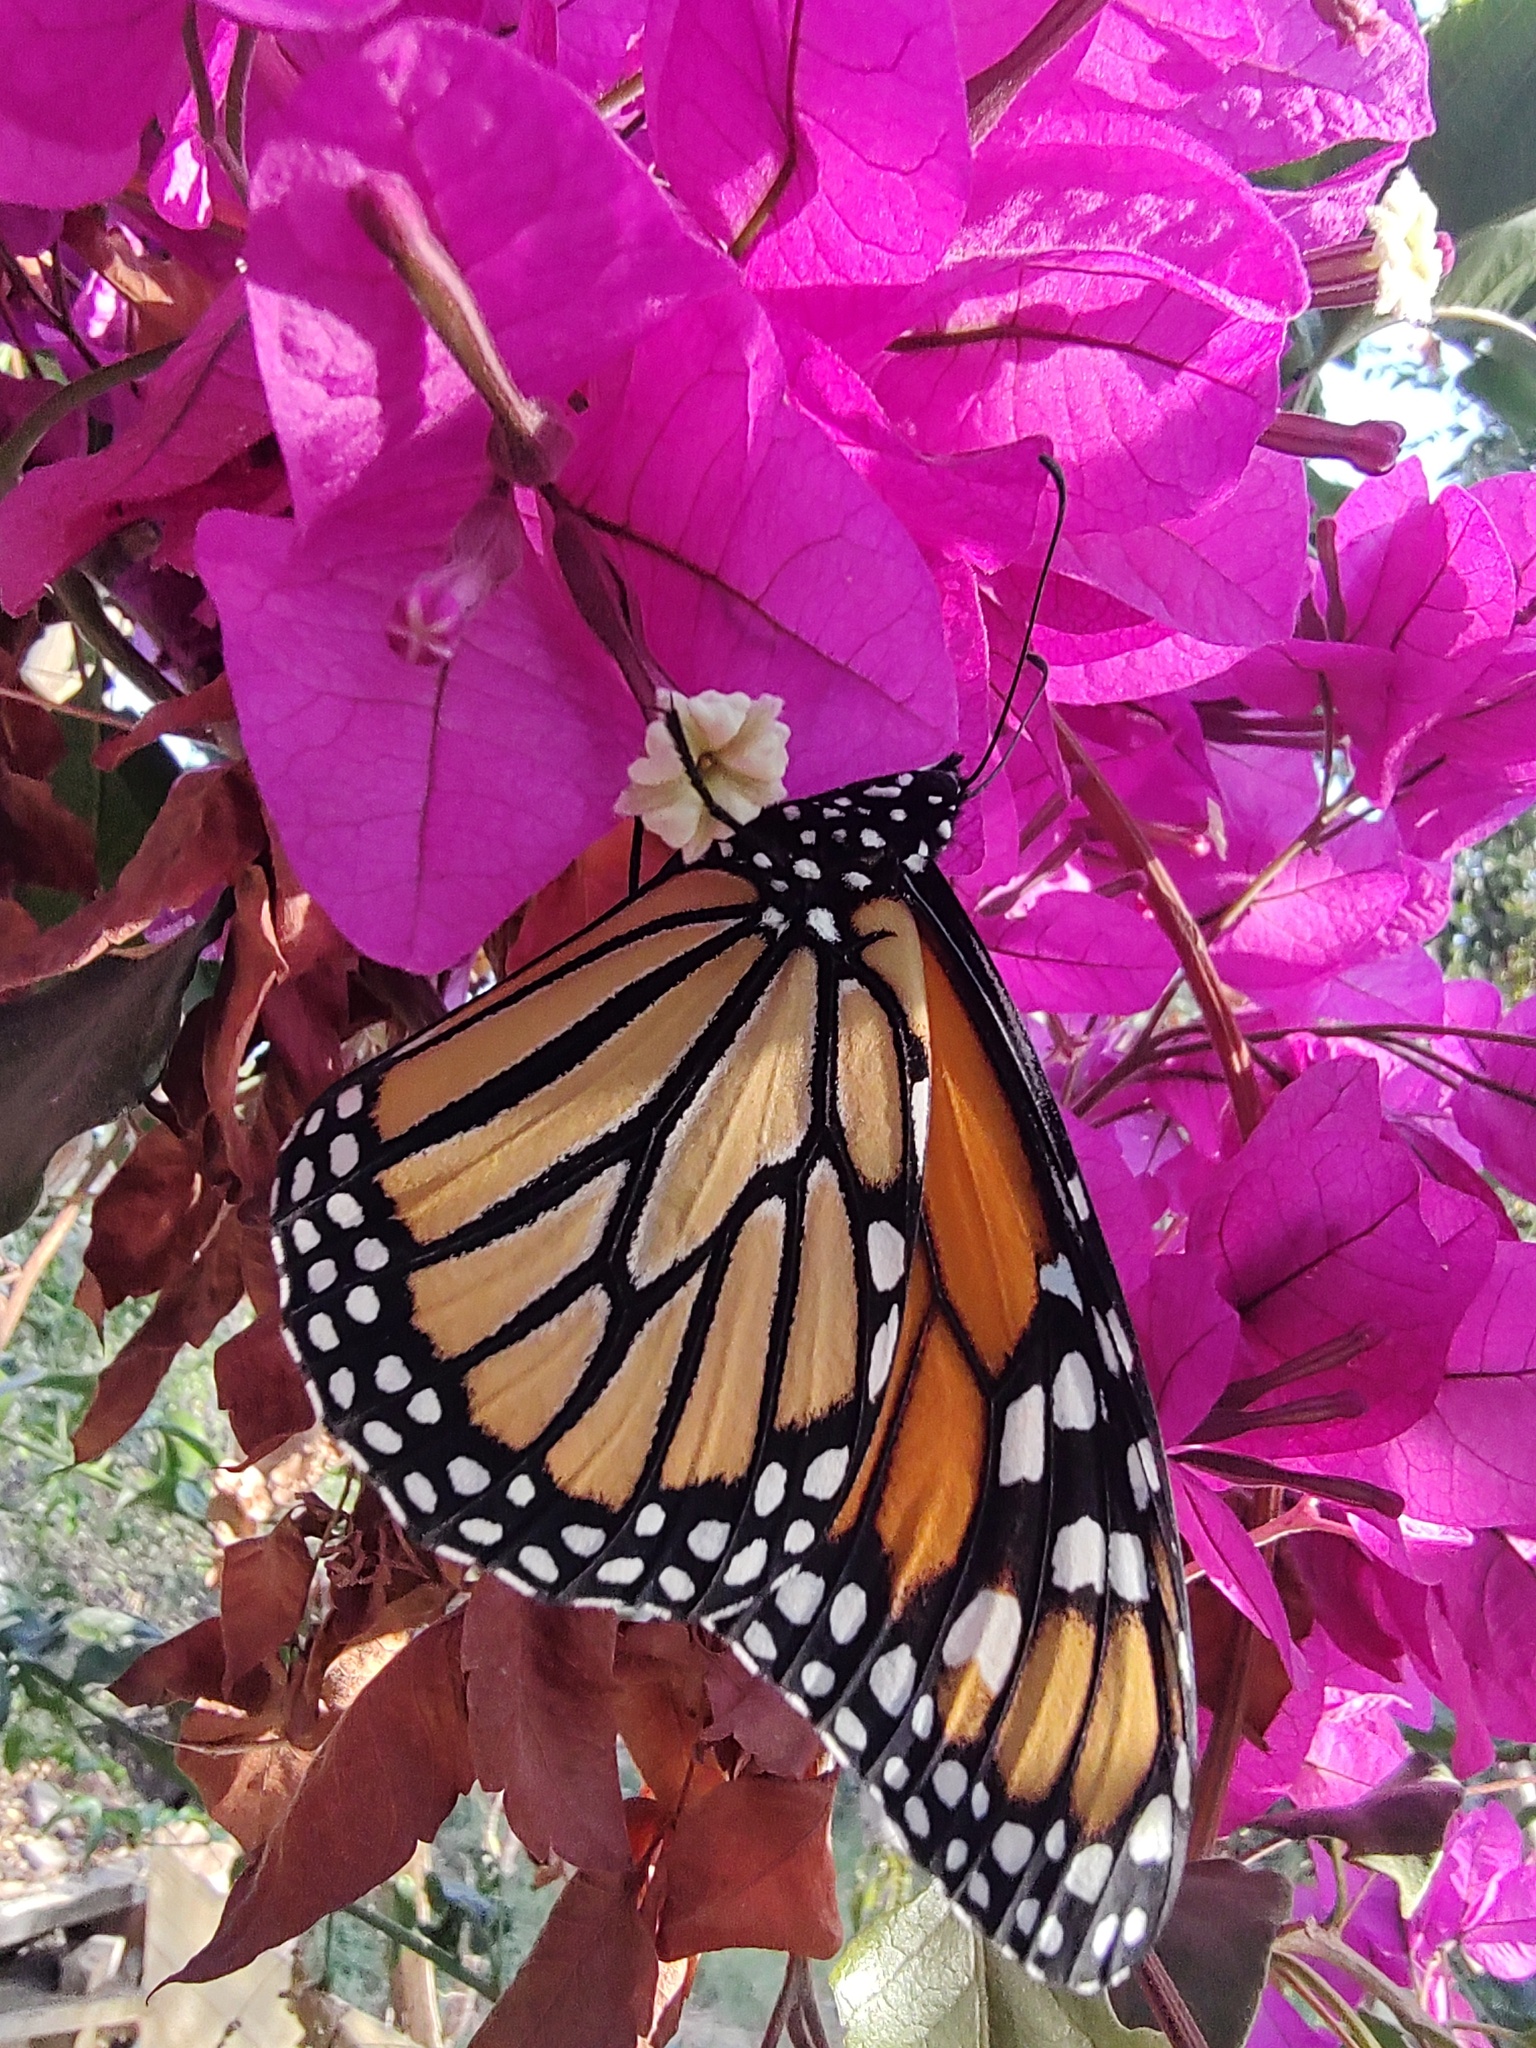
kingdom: Animalia
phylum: Arthropoda
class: Insecta
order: Lepidoptera
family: Nymphalidae
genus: Danaus
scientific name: Danaus plexippus
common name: Monarch
